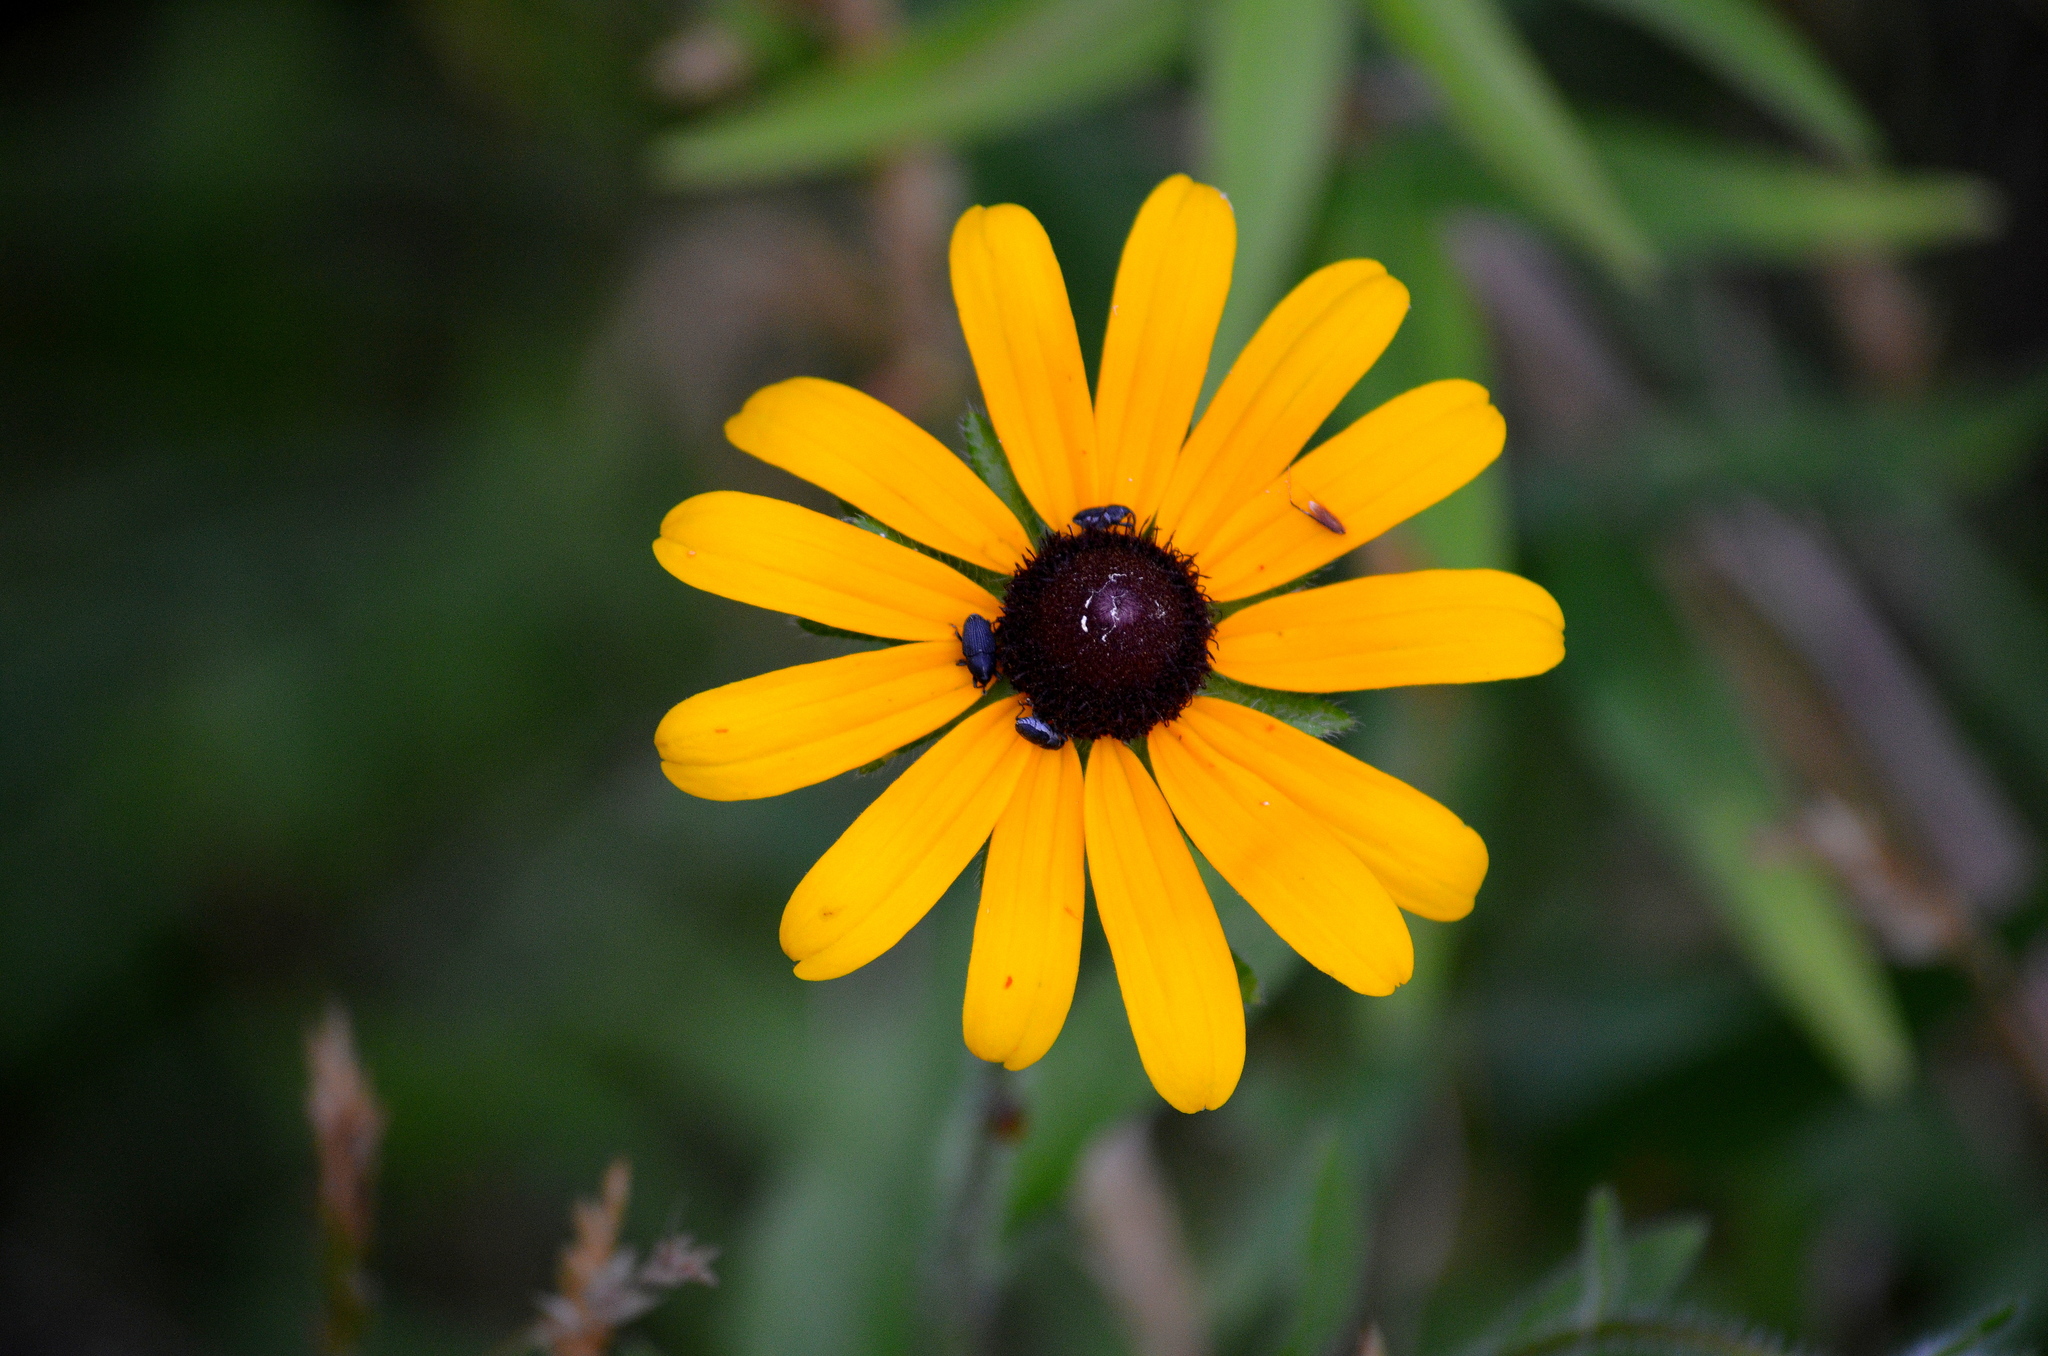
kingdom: Plantae
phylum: Tracheophyta
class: Magnoliopsida
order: Asterales
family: Asteraceae
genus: Rudbeckia
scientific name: Rudbeckia hirta
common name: Black-eyed-susan
